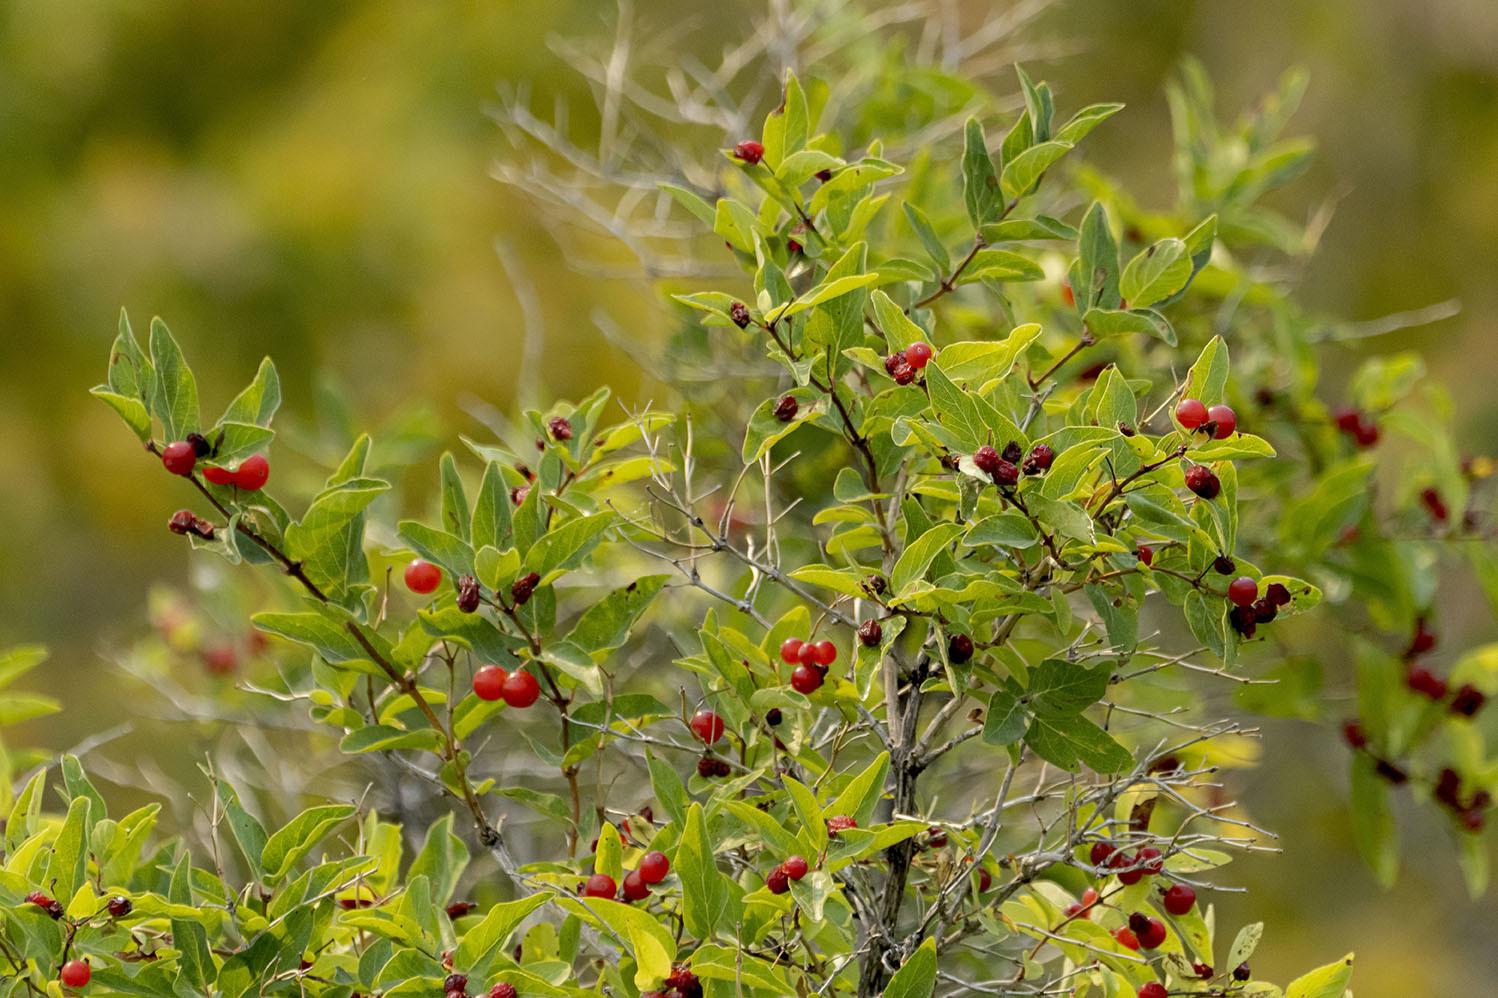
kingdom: Plantae
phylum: Tracheophyta
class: Magnoliopsida
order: Dipsacales
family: Caprifoliaceae
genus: Lonicera
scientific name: Lonicera tatarica
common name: Tatarian honeysuckle
